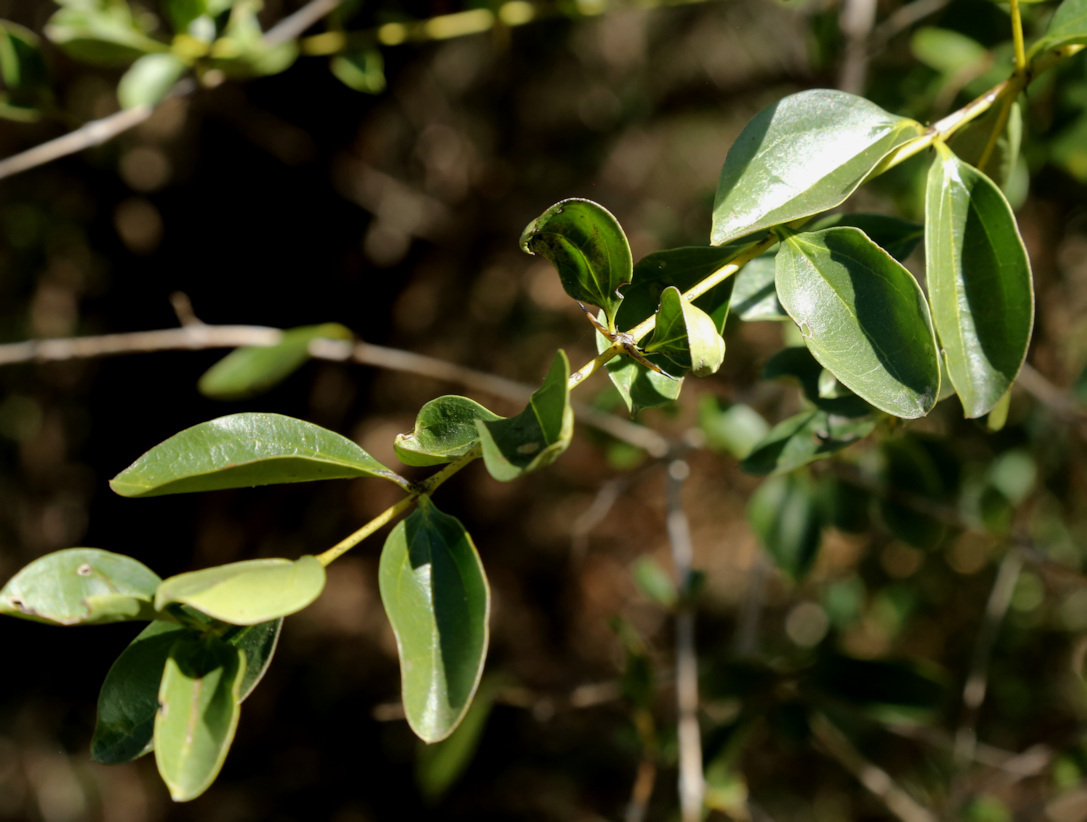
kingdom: Plantae
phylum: Tracheophyta
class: Magnoliopsida
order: Gentianales
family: Loganiaceae
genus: Strychnos
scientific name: Strychnos spinosa
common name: Natal orange
